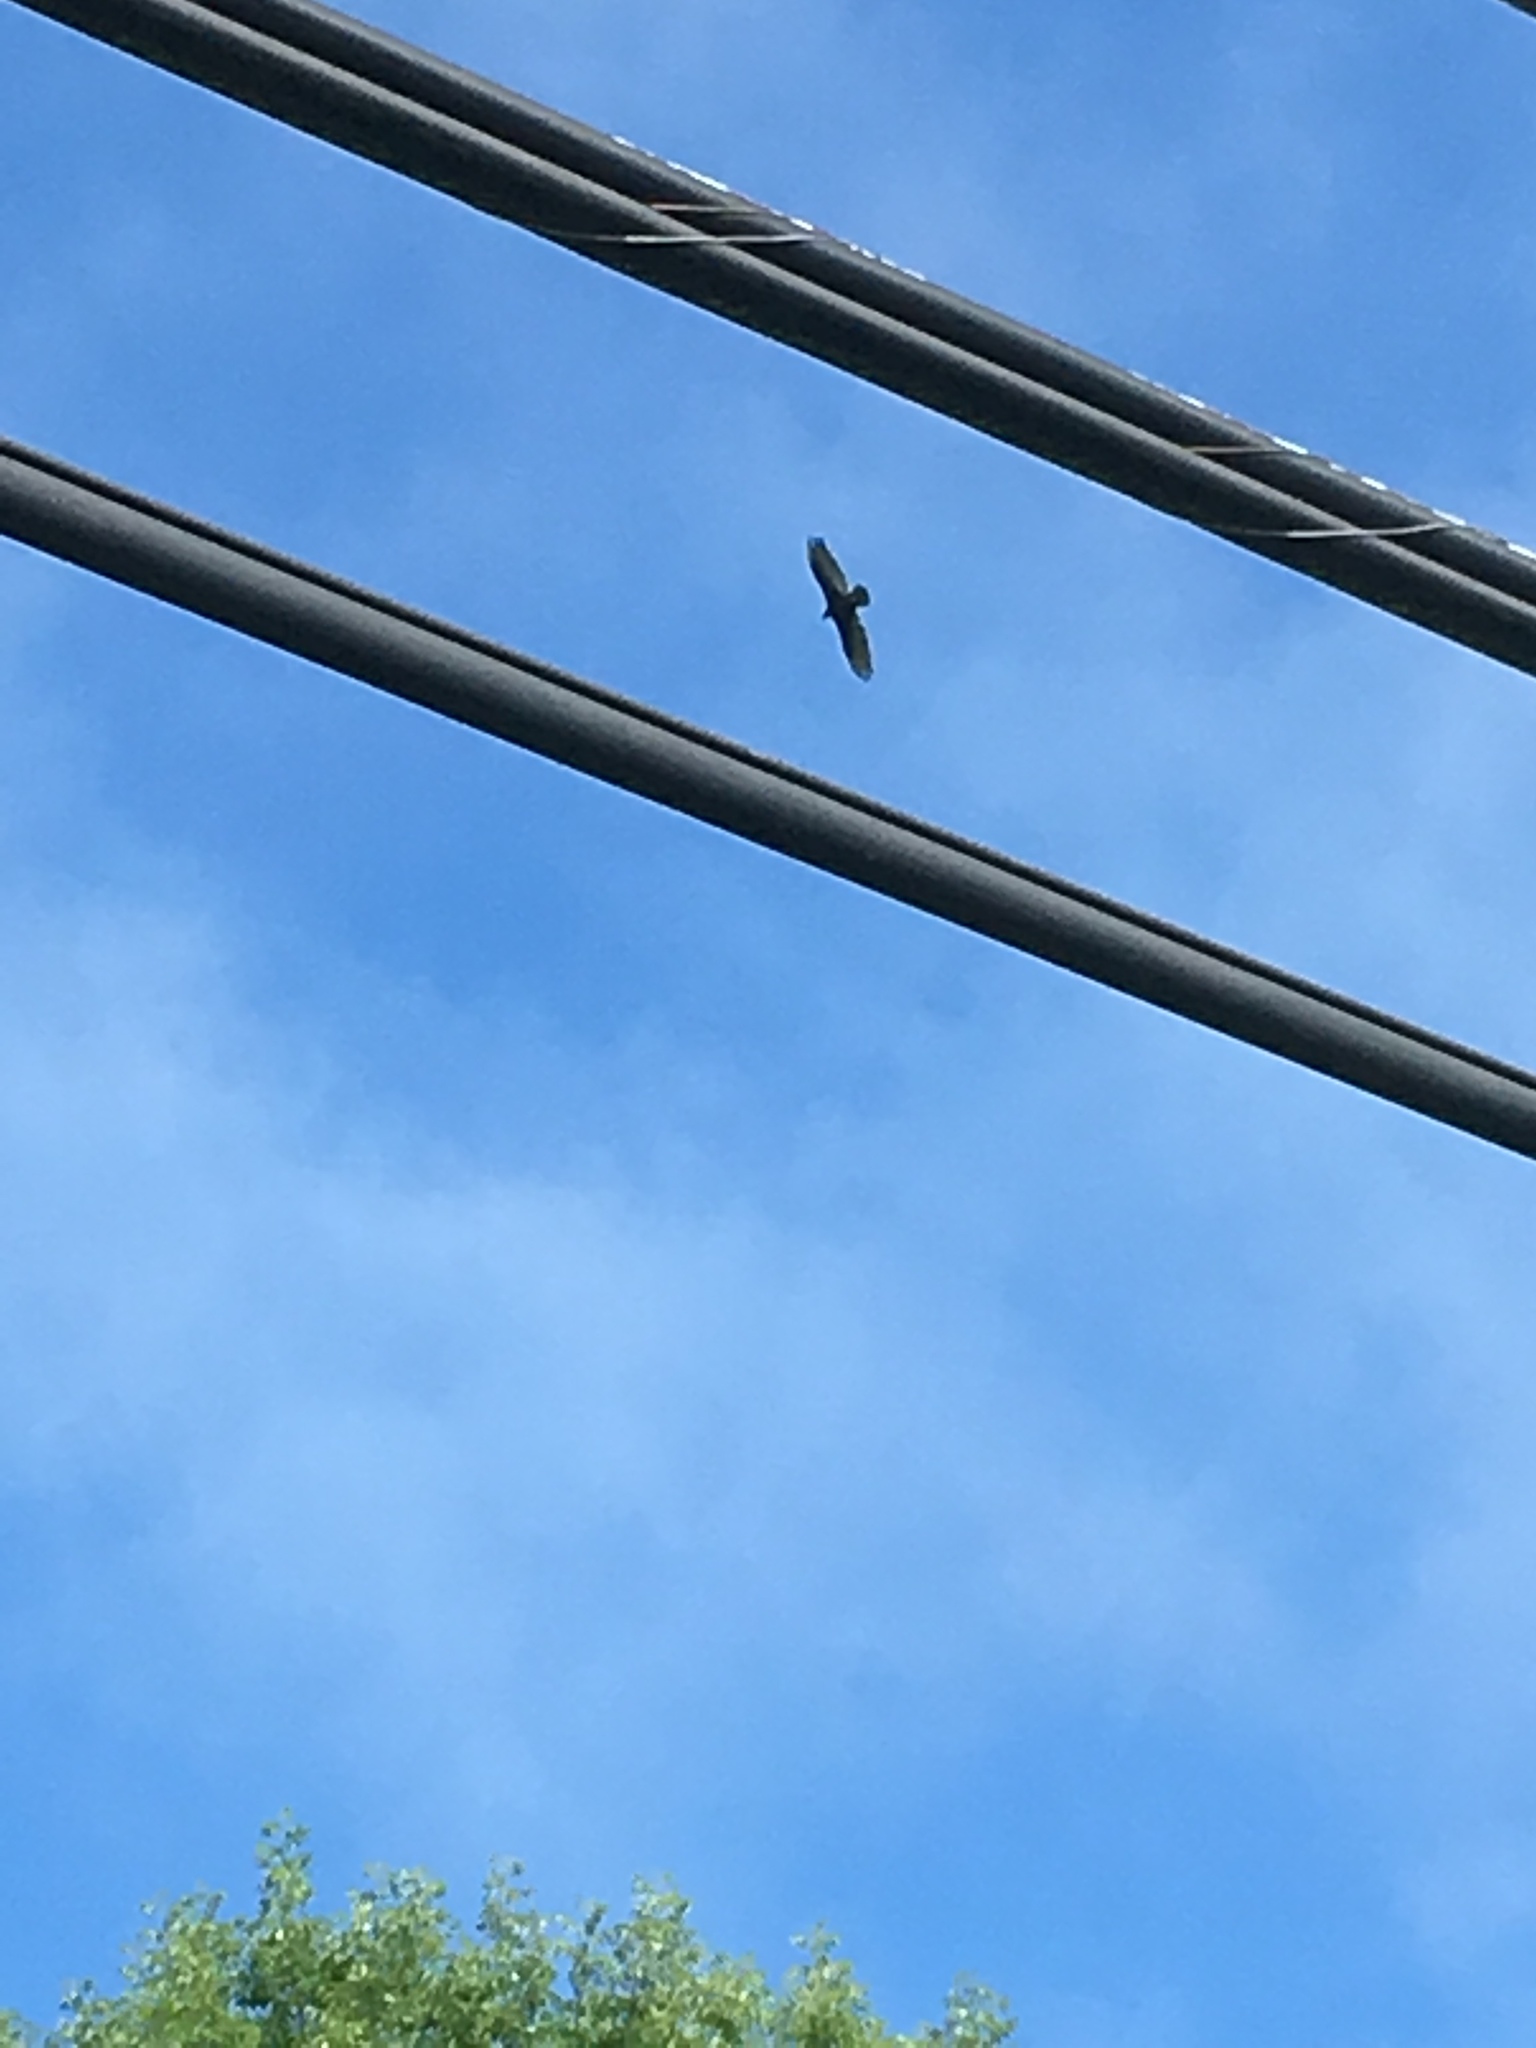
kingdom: Animalia
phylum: Chordata
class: Aves
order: Accipitriformes
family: Cathartidae
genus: Cathartes
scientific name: Cathartes aura
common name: Turkey vulture
